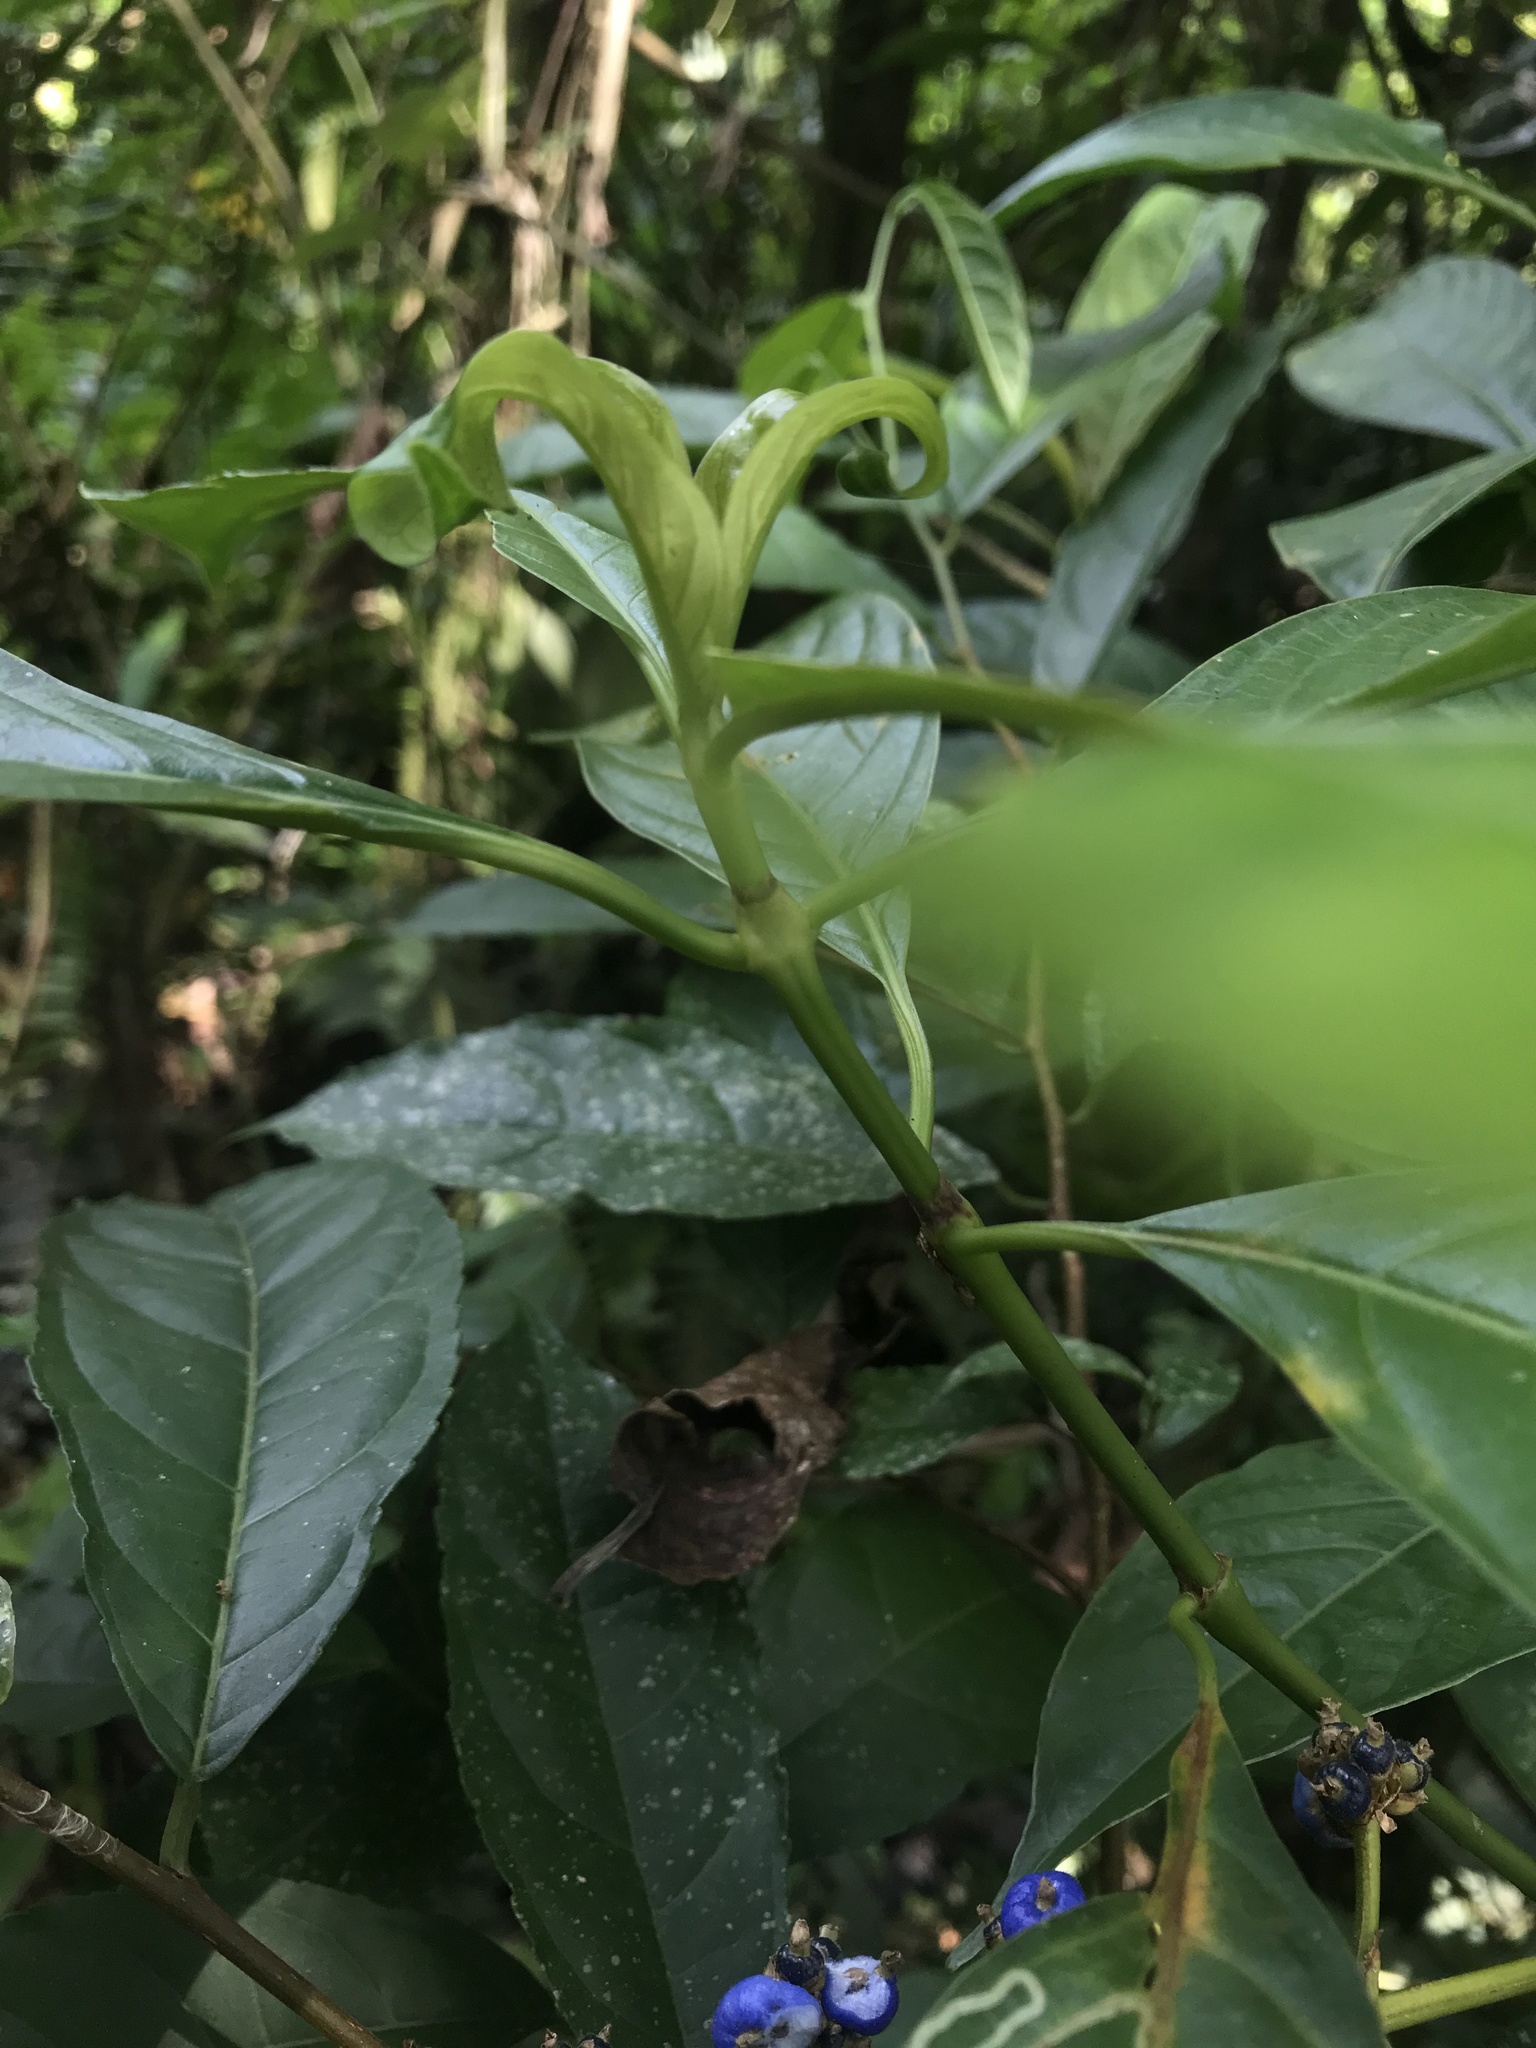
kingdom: Plantae
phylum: Tracheophyta
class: Magnoliopsida
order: Gentianales
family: Rubiaceae
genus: Palicourea
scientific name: Palicourea caerulea
